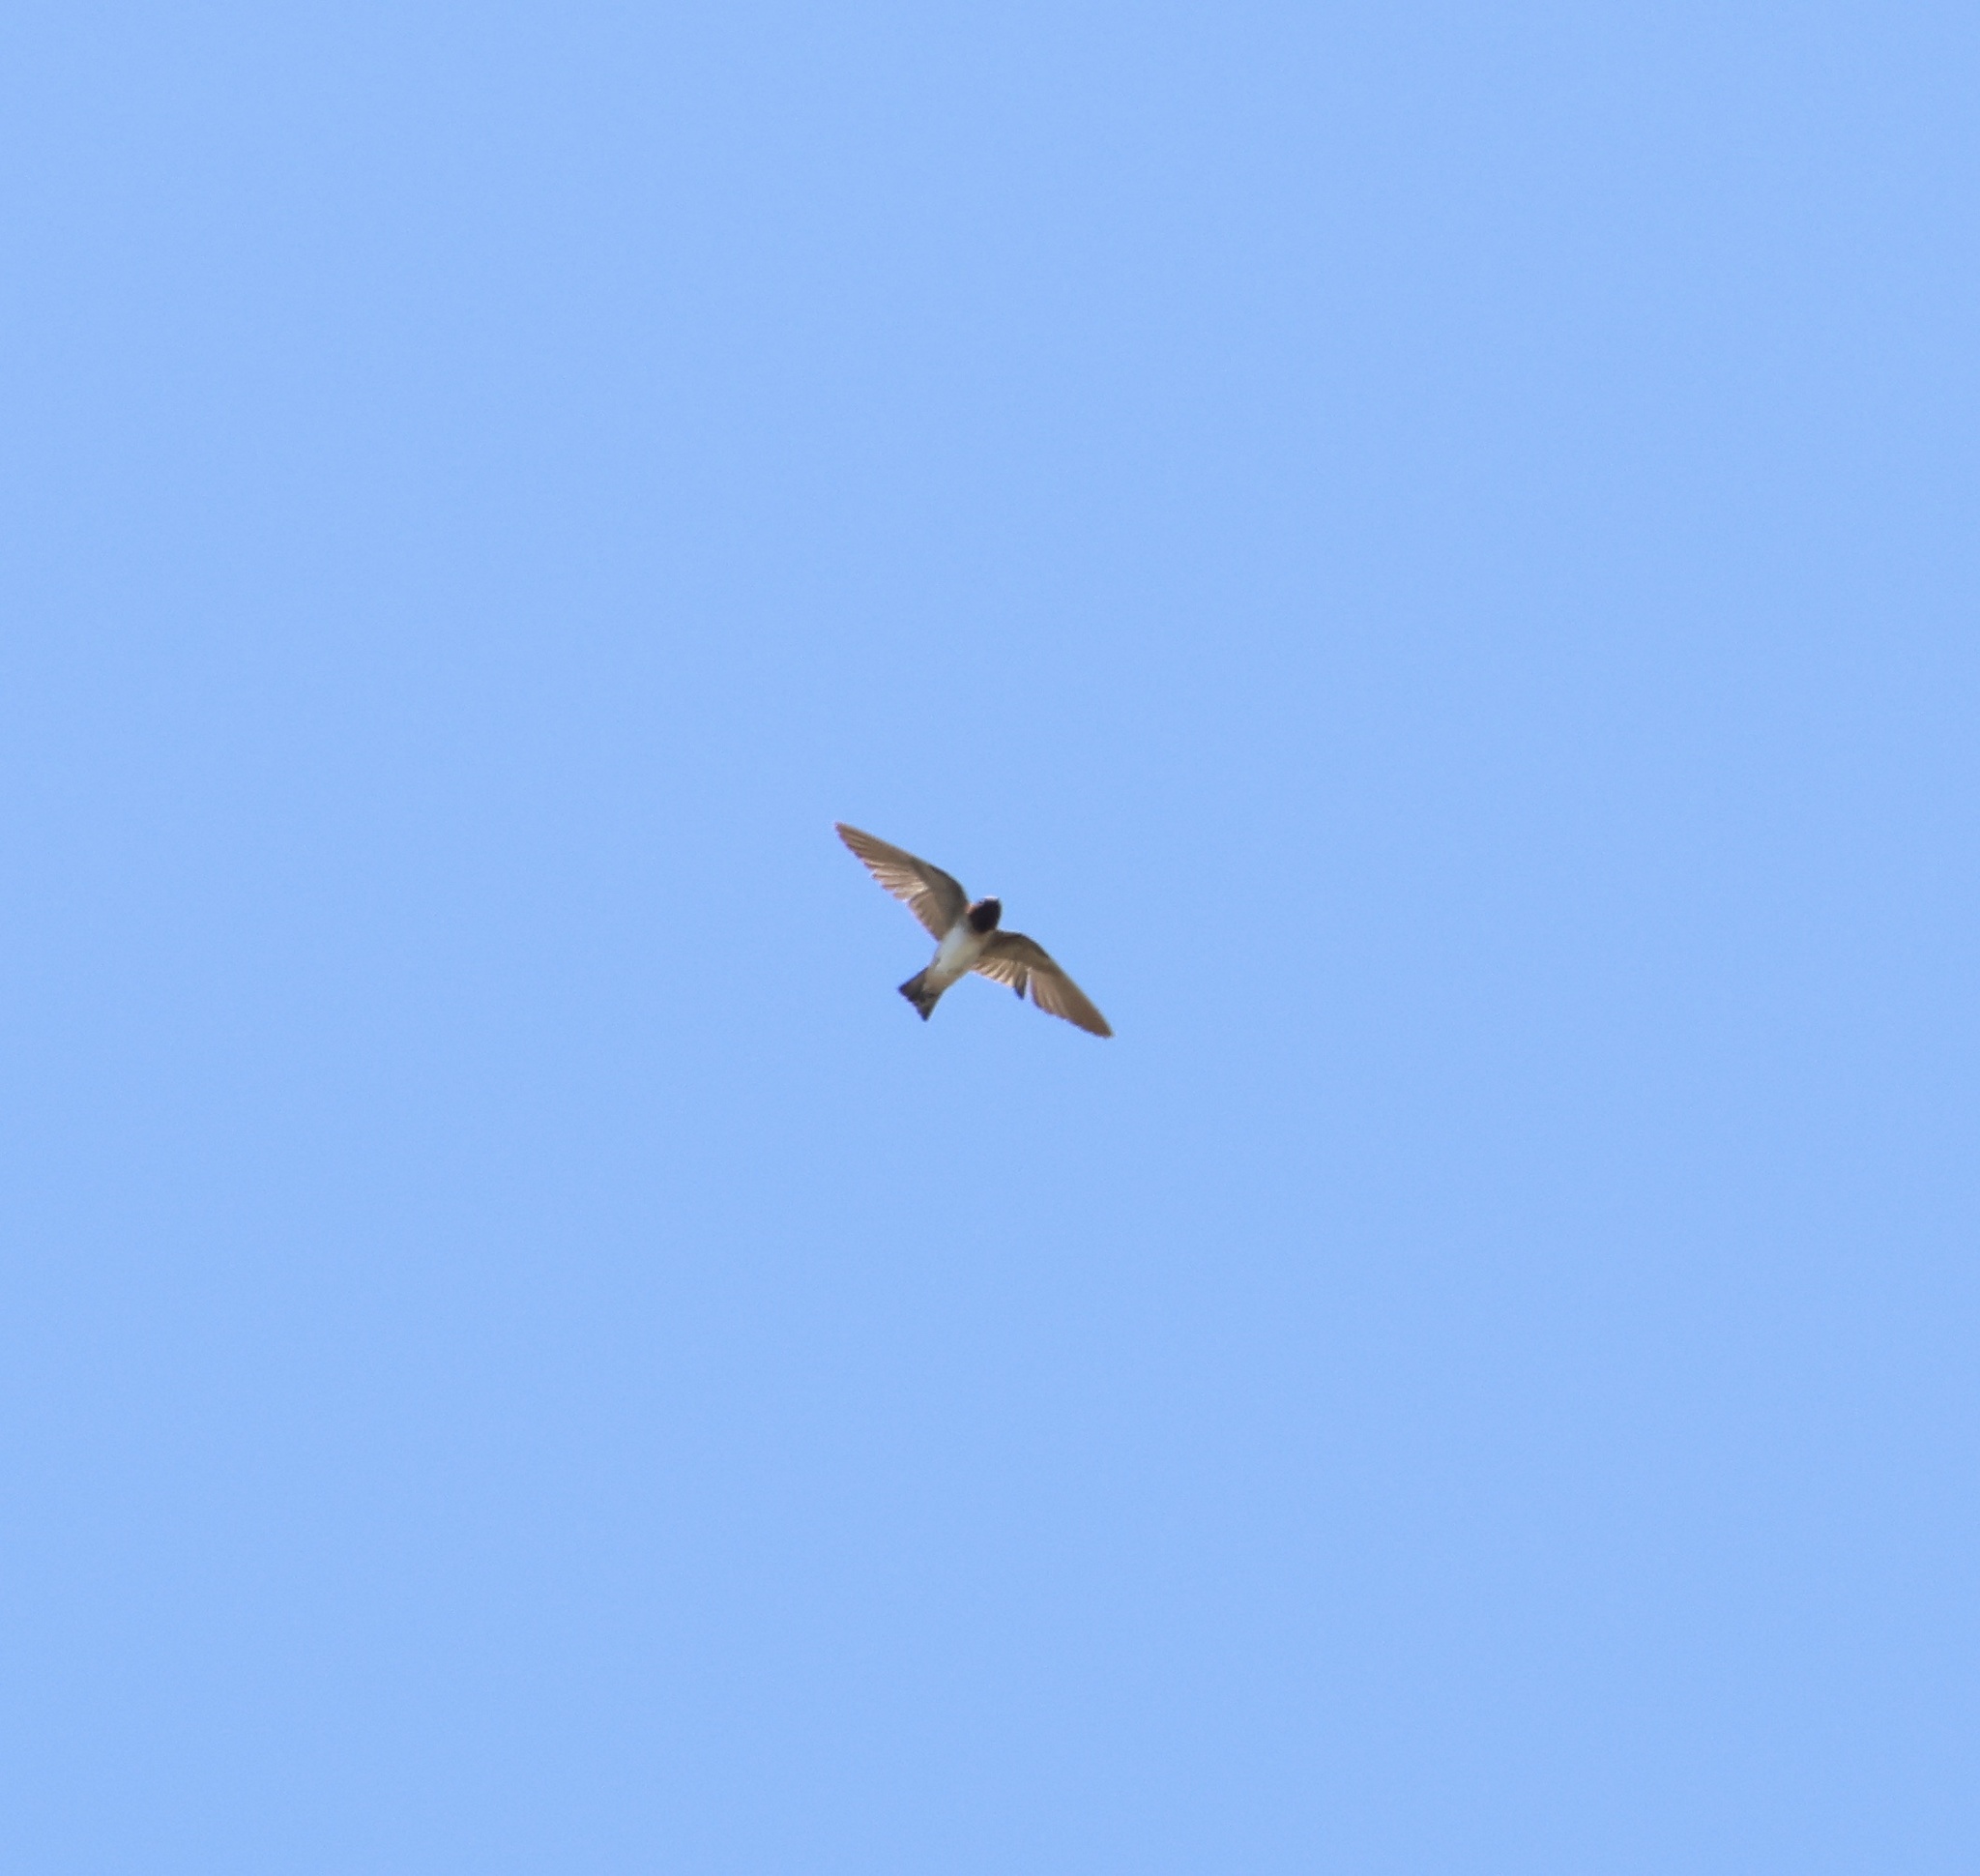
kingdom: Animalia
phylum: Chordata
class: Aves
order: Passeriformes
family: Hirundinidae
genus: Petrochelidon
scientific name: Petrochelidon pyrrhonota
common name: American cliff swallow
